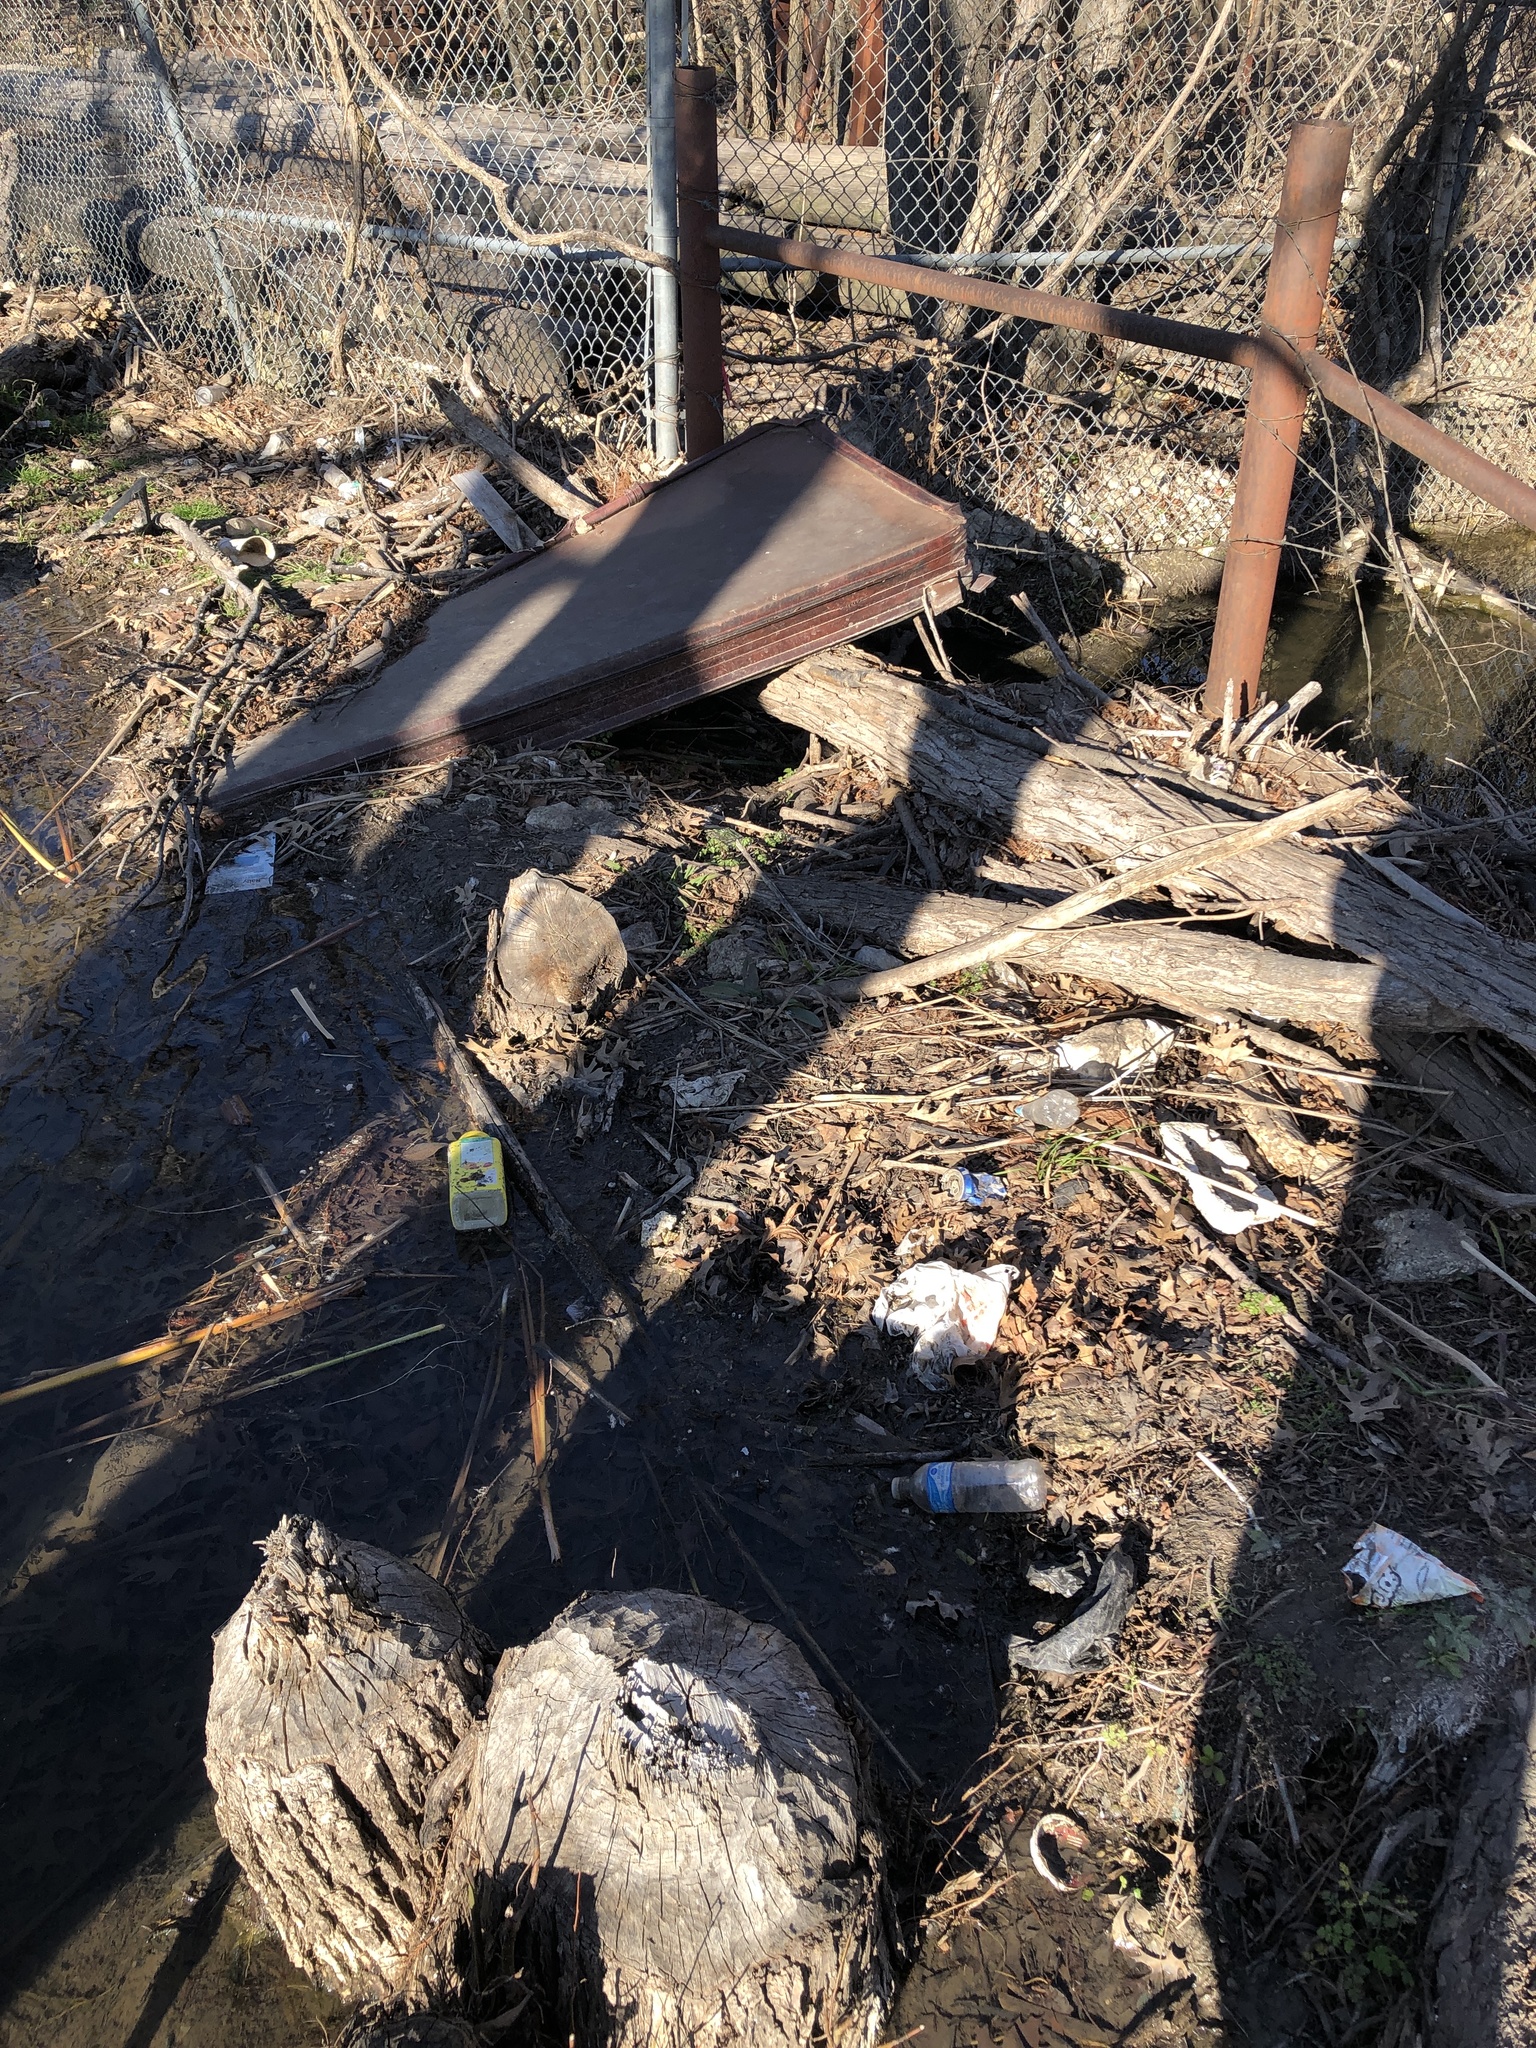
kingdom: Animalia
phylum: Chordata
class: Mammalia
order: Rodentia
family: Castoridae
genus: Castor
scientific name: Castor canadensis
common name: American beaver
